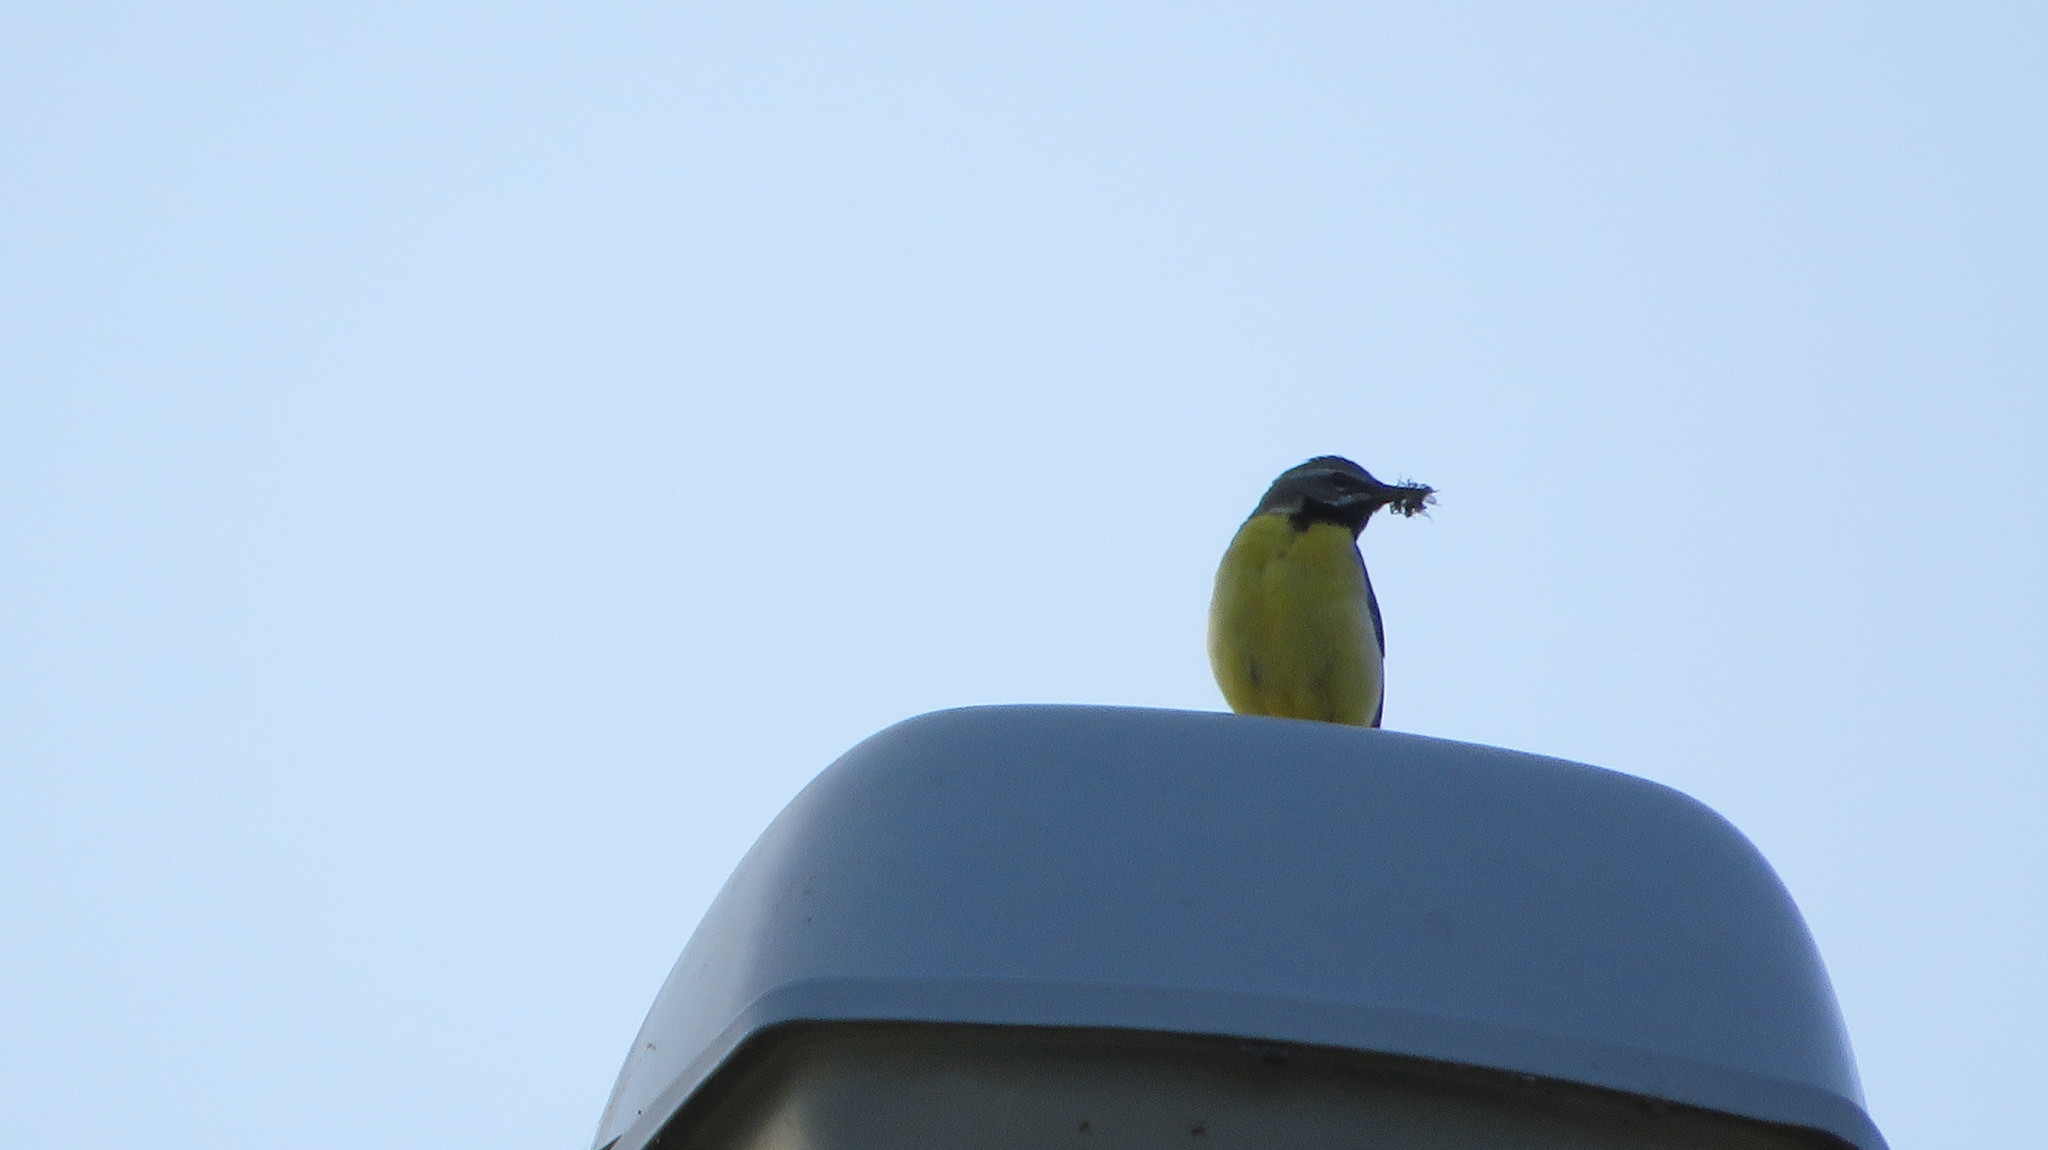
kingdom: Animalia
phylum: Chordata
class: Aves
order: Passeriformes
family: Motacillidae
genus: Motacilla
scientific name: Motacilla cinerea
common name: Grey wagtail
